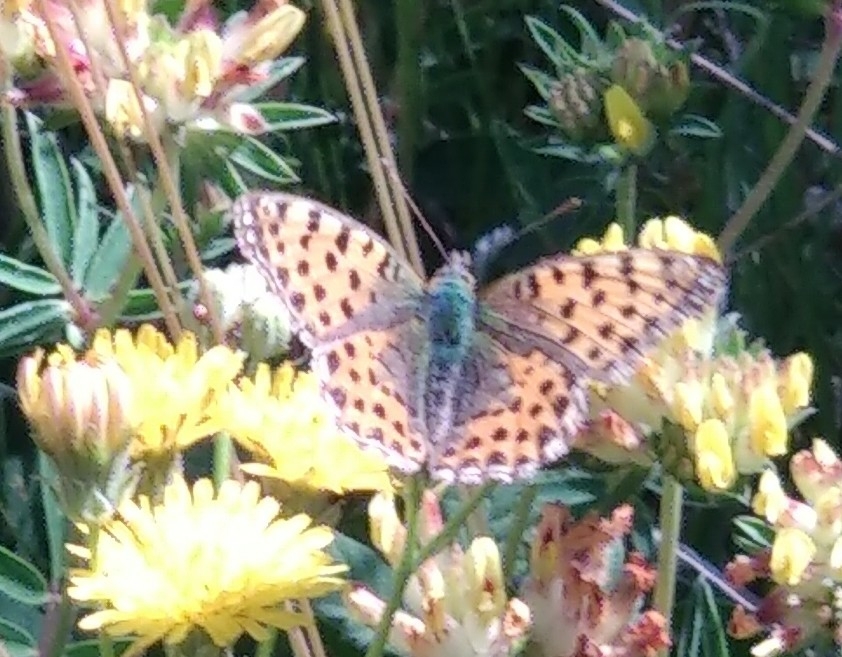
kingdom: Animalia
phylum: Arthropoda
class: Insecta
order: Lepidoptera
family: Nymphalidae
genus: Issoria
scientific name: Issoria lathonia
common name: Queen of spain fritillary
